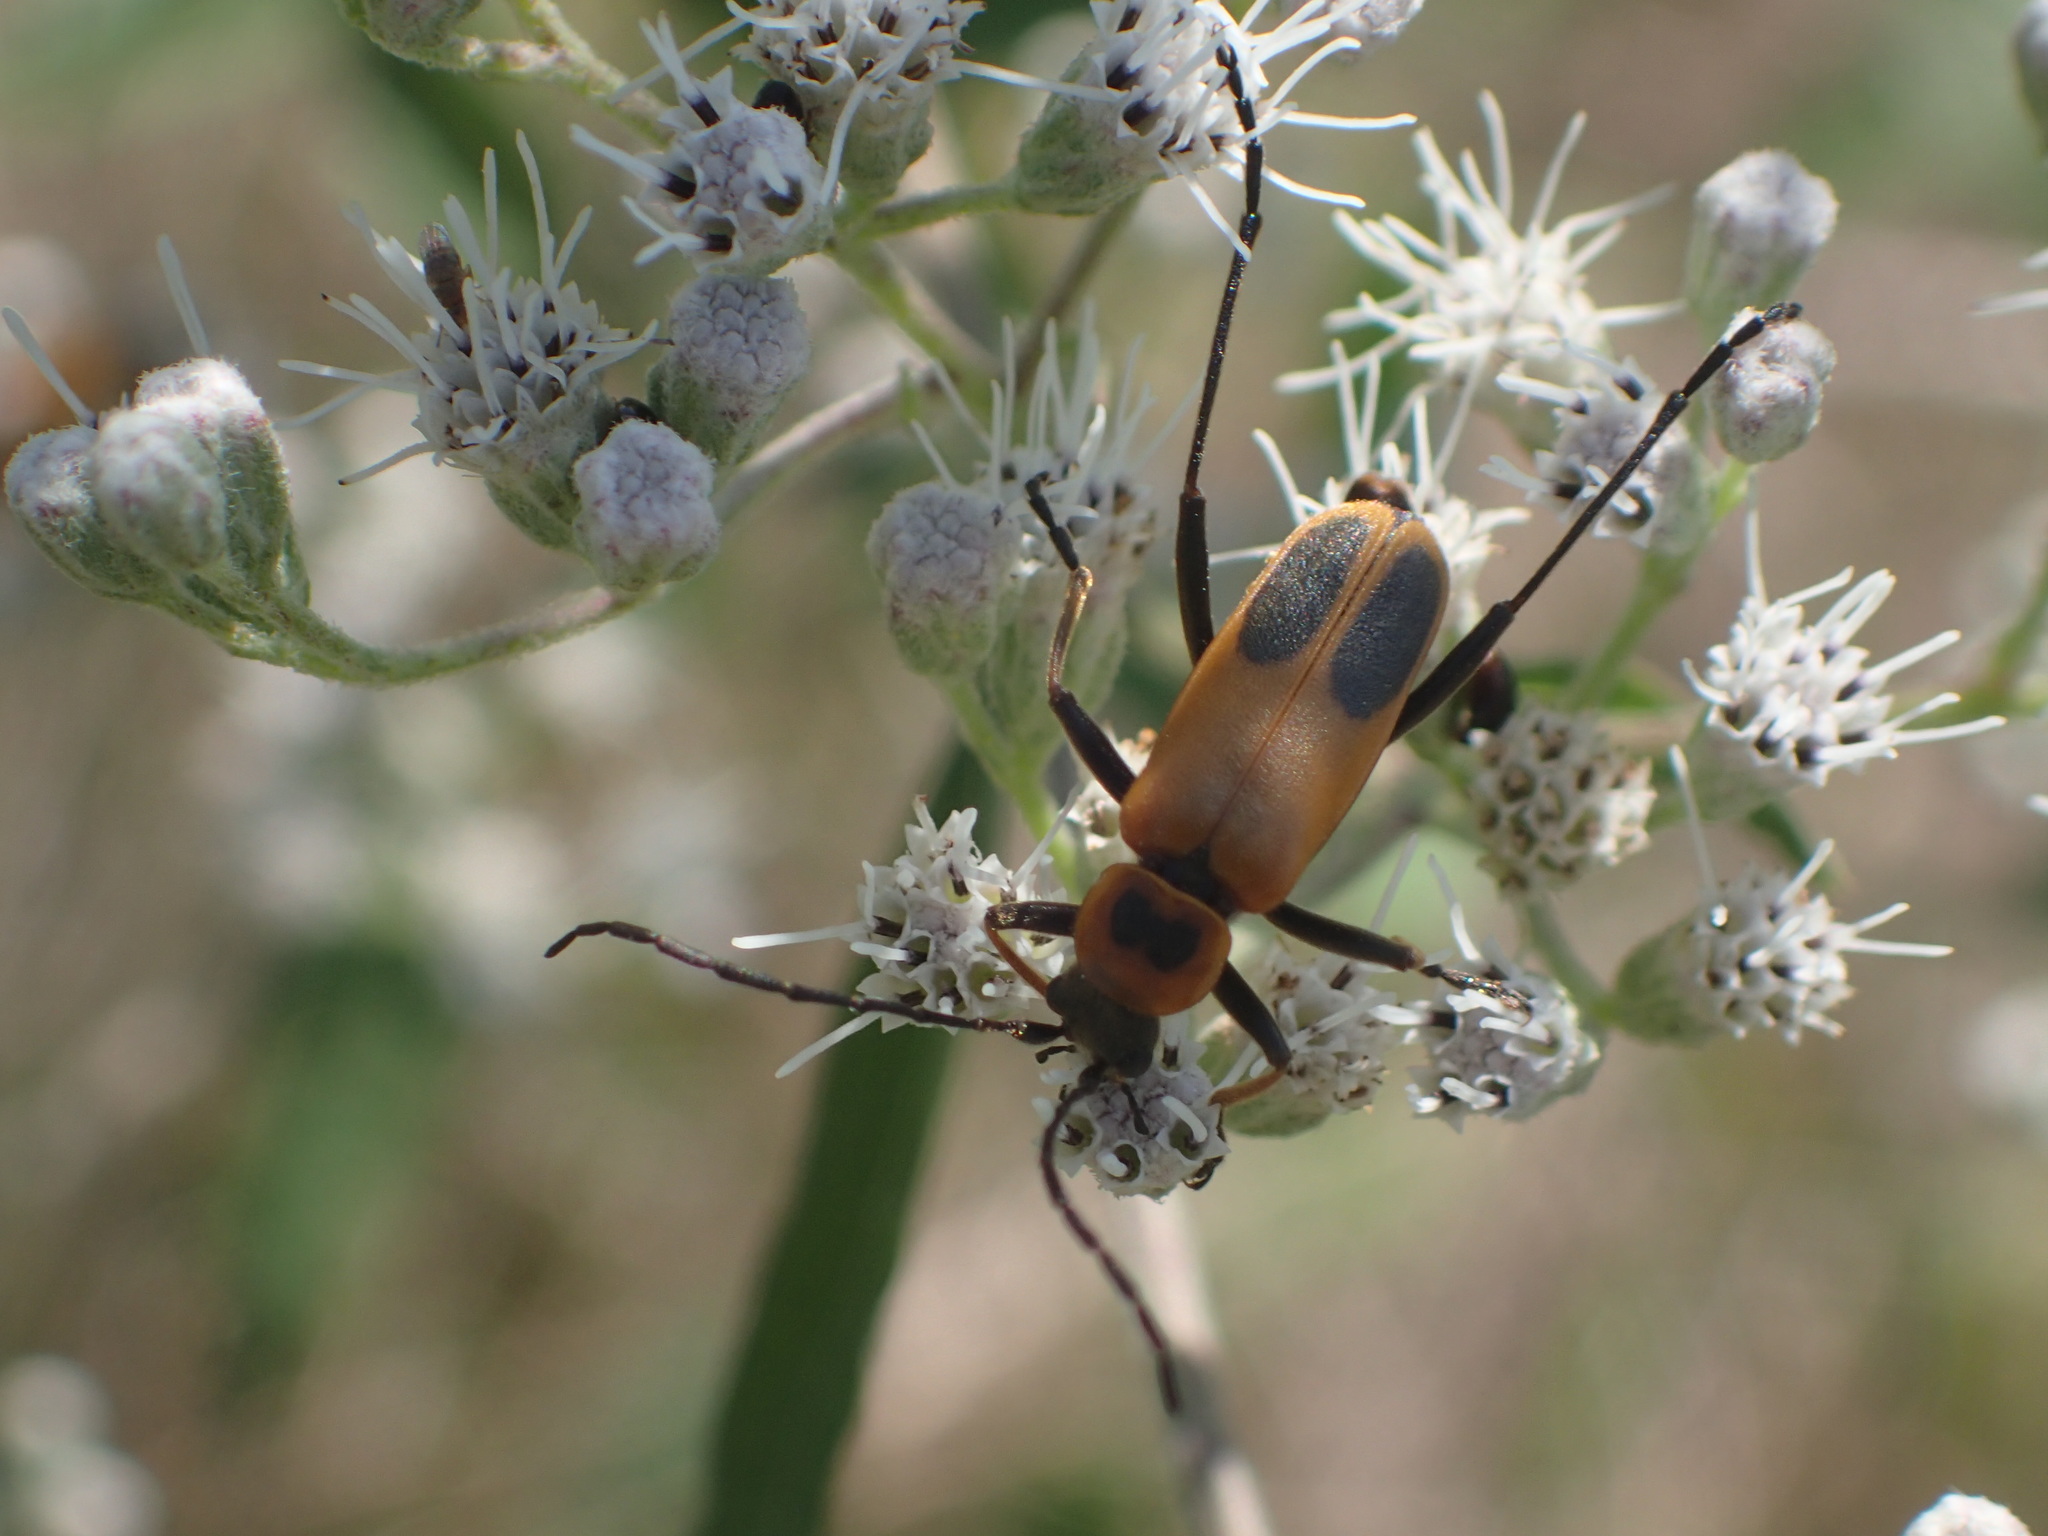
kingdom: Animalia
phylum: Arthropoda
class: Insecta
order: Coleoptera
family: Cantharidae
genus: Chauliognathus
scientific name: Chauliognathus pensylvanicus
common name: Goldenrod soldier beetle
